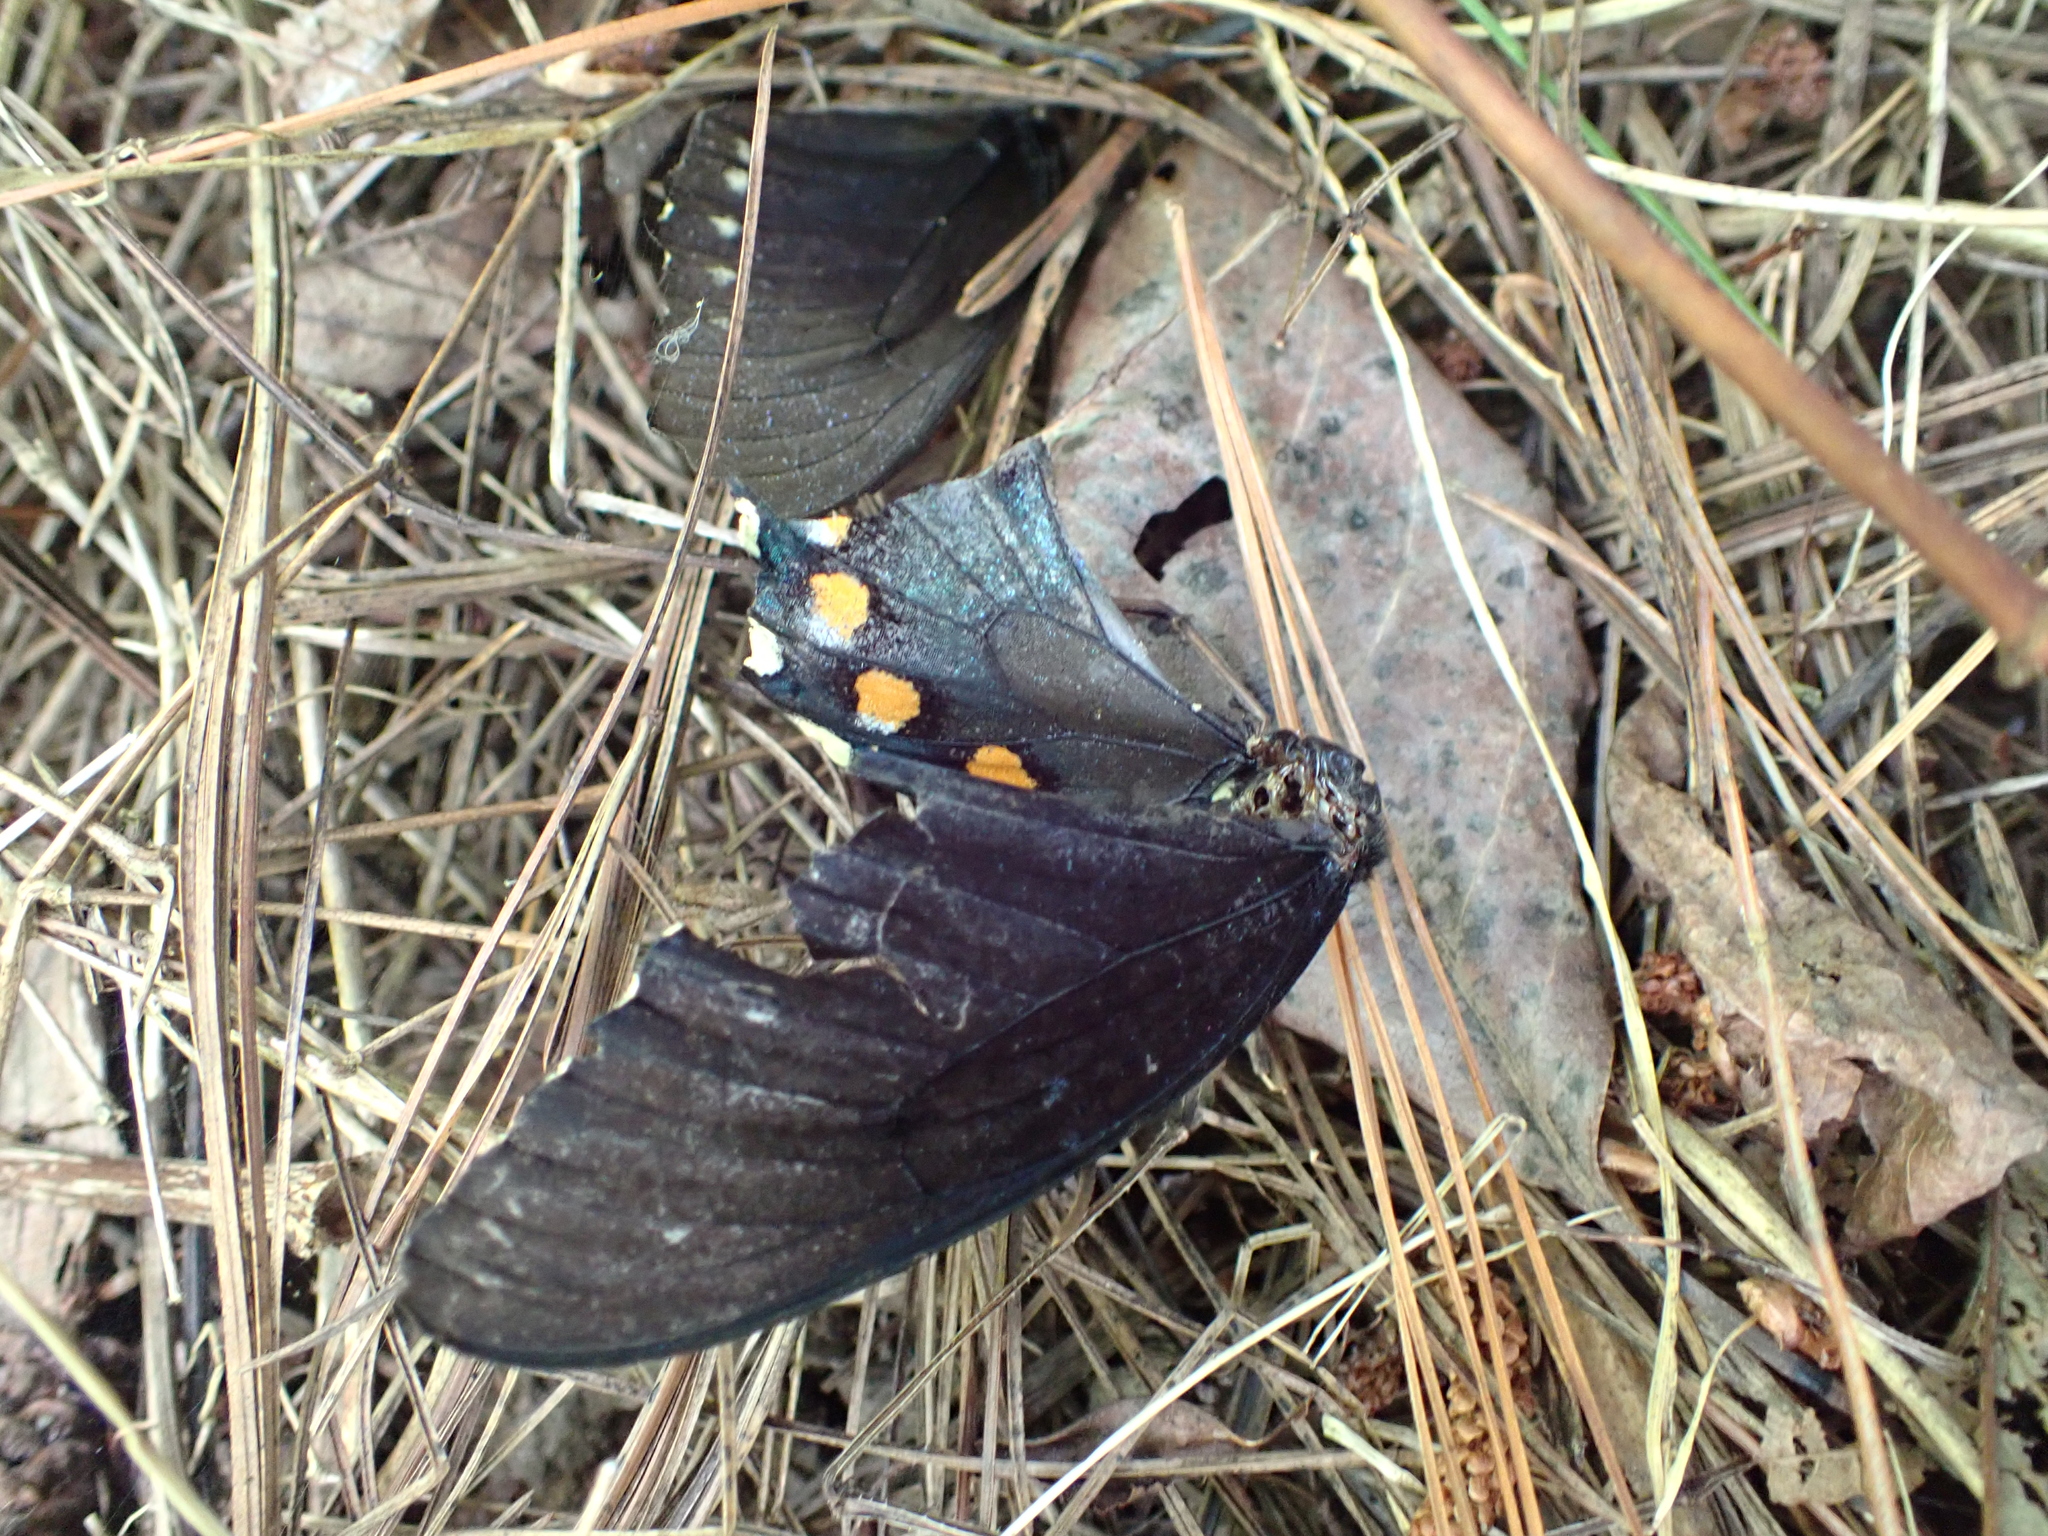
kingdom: Animalia
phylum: Arthropoda
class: Insecta
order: Lepidoptera
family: Papilionidae
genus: Battus
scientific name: Battus philenor
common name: Pipevine swallowtail
